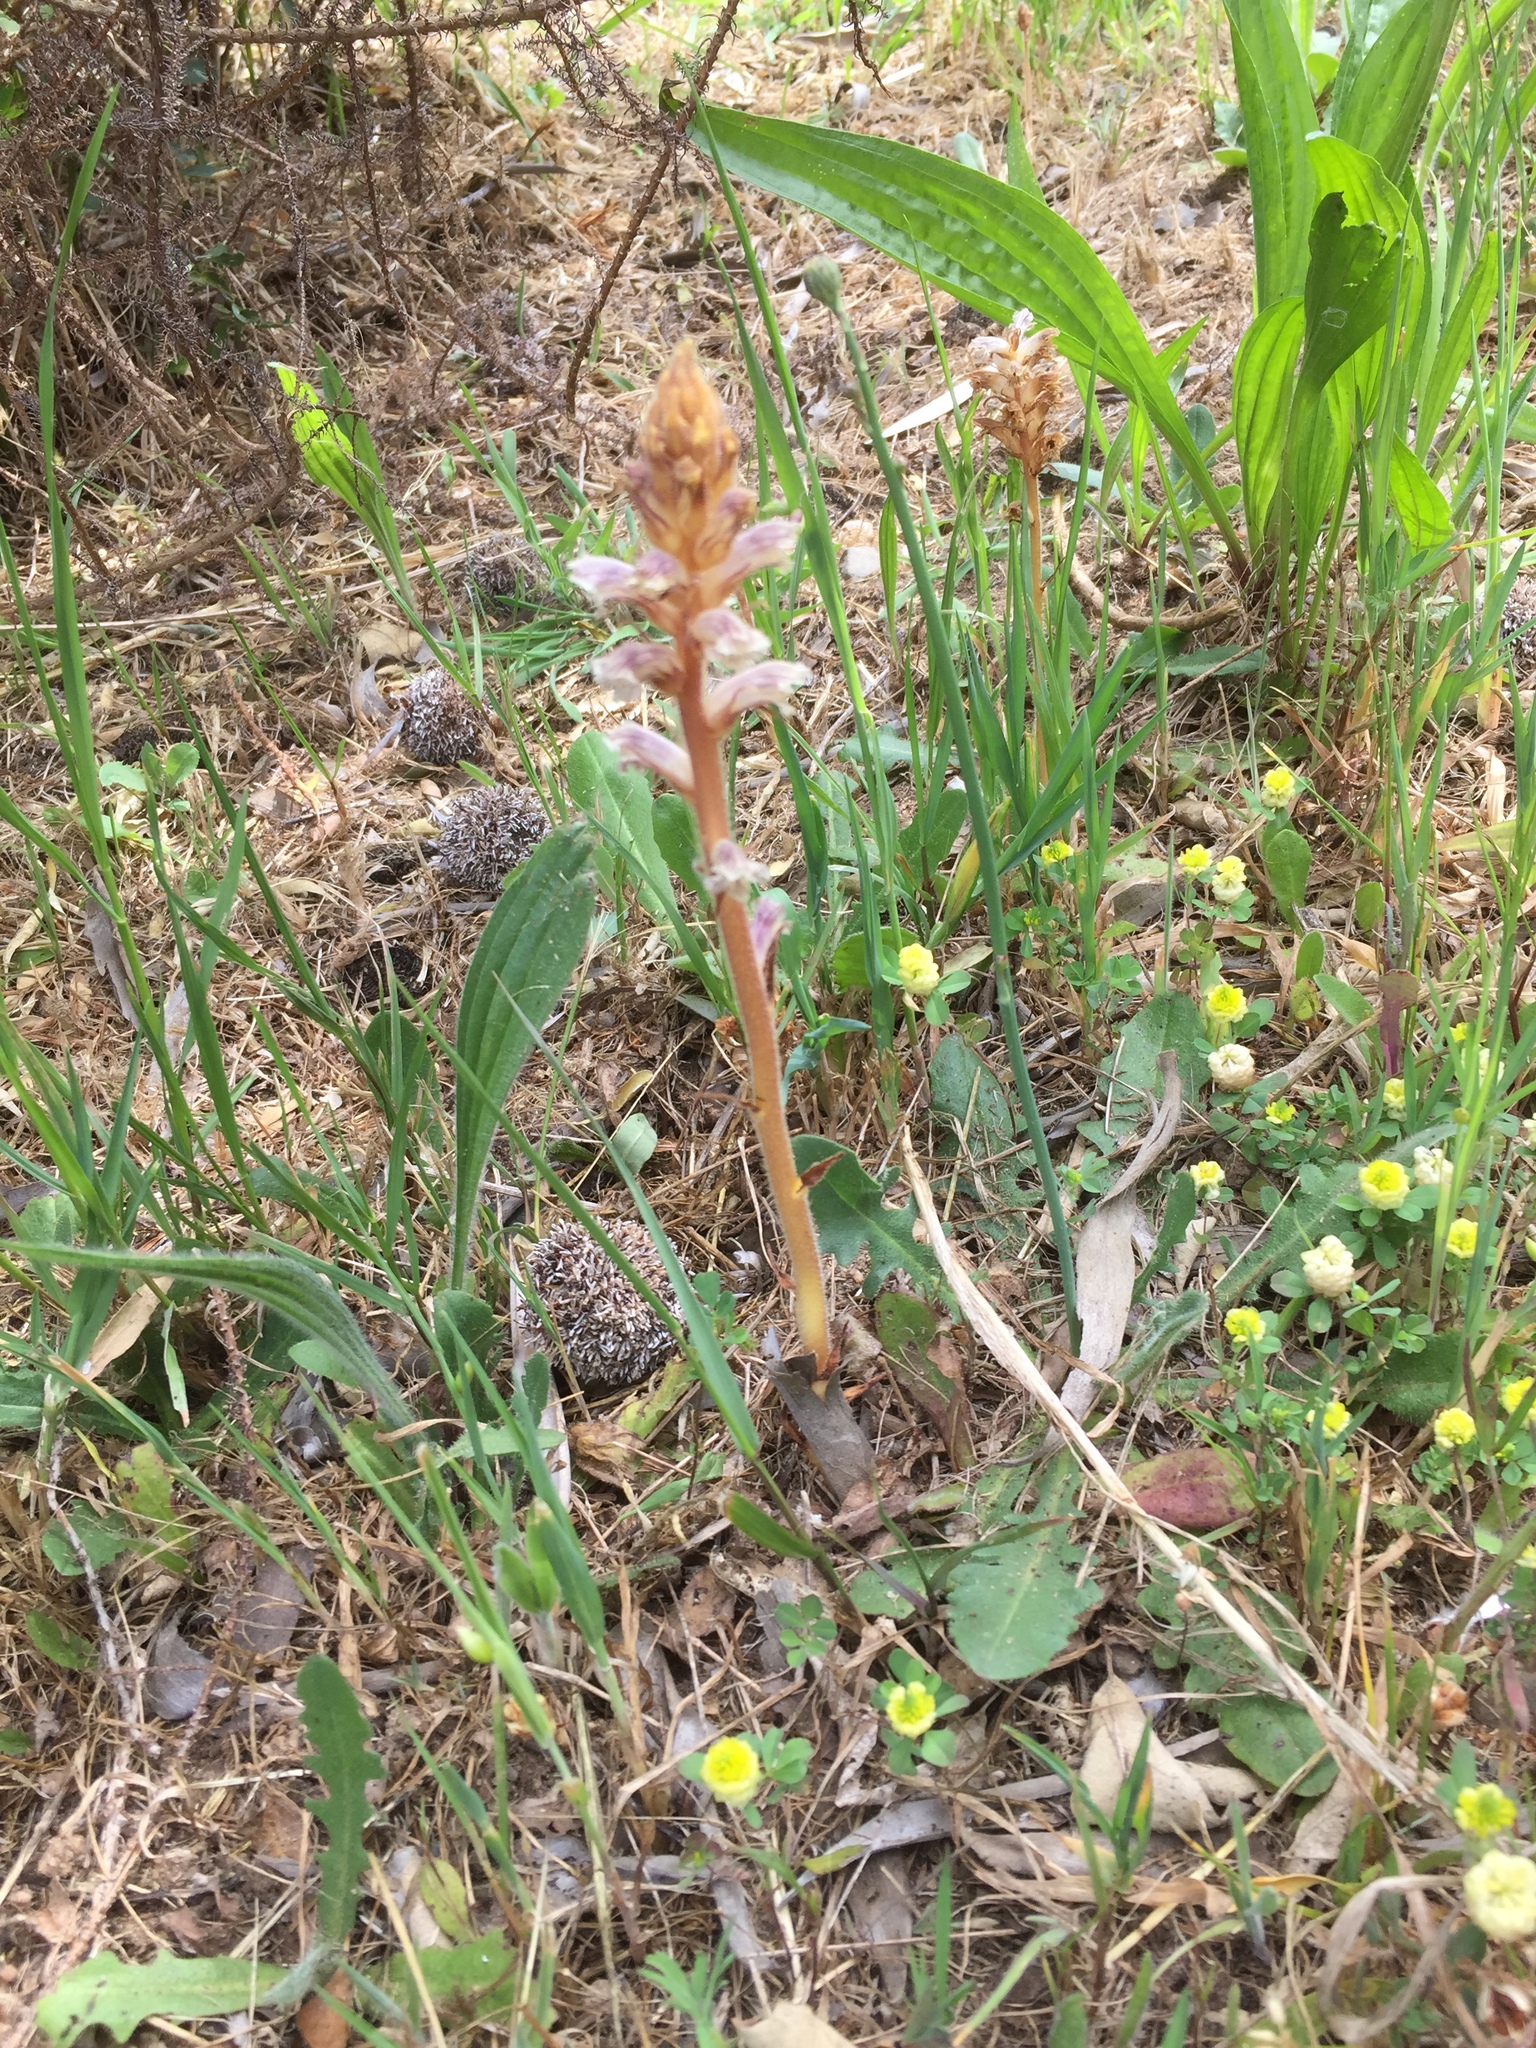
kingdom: Plantae
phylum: Tracheophyta
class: Magnoliopsida
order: Lamiales
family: Orobanchaceae
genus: Orobanche
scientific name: Orobanche minor
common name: Common broomrape
